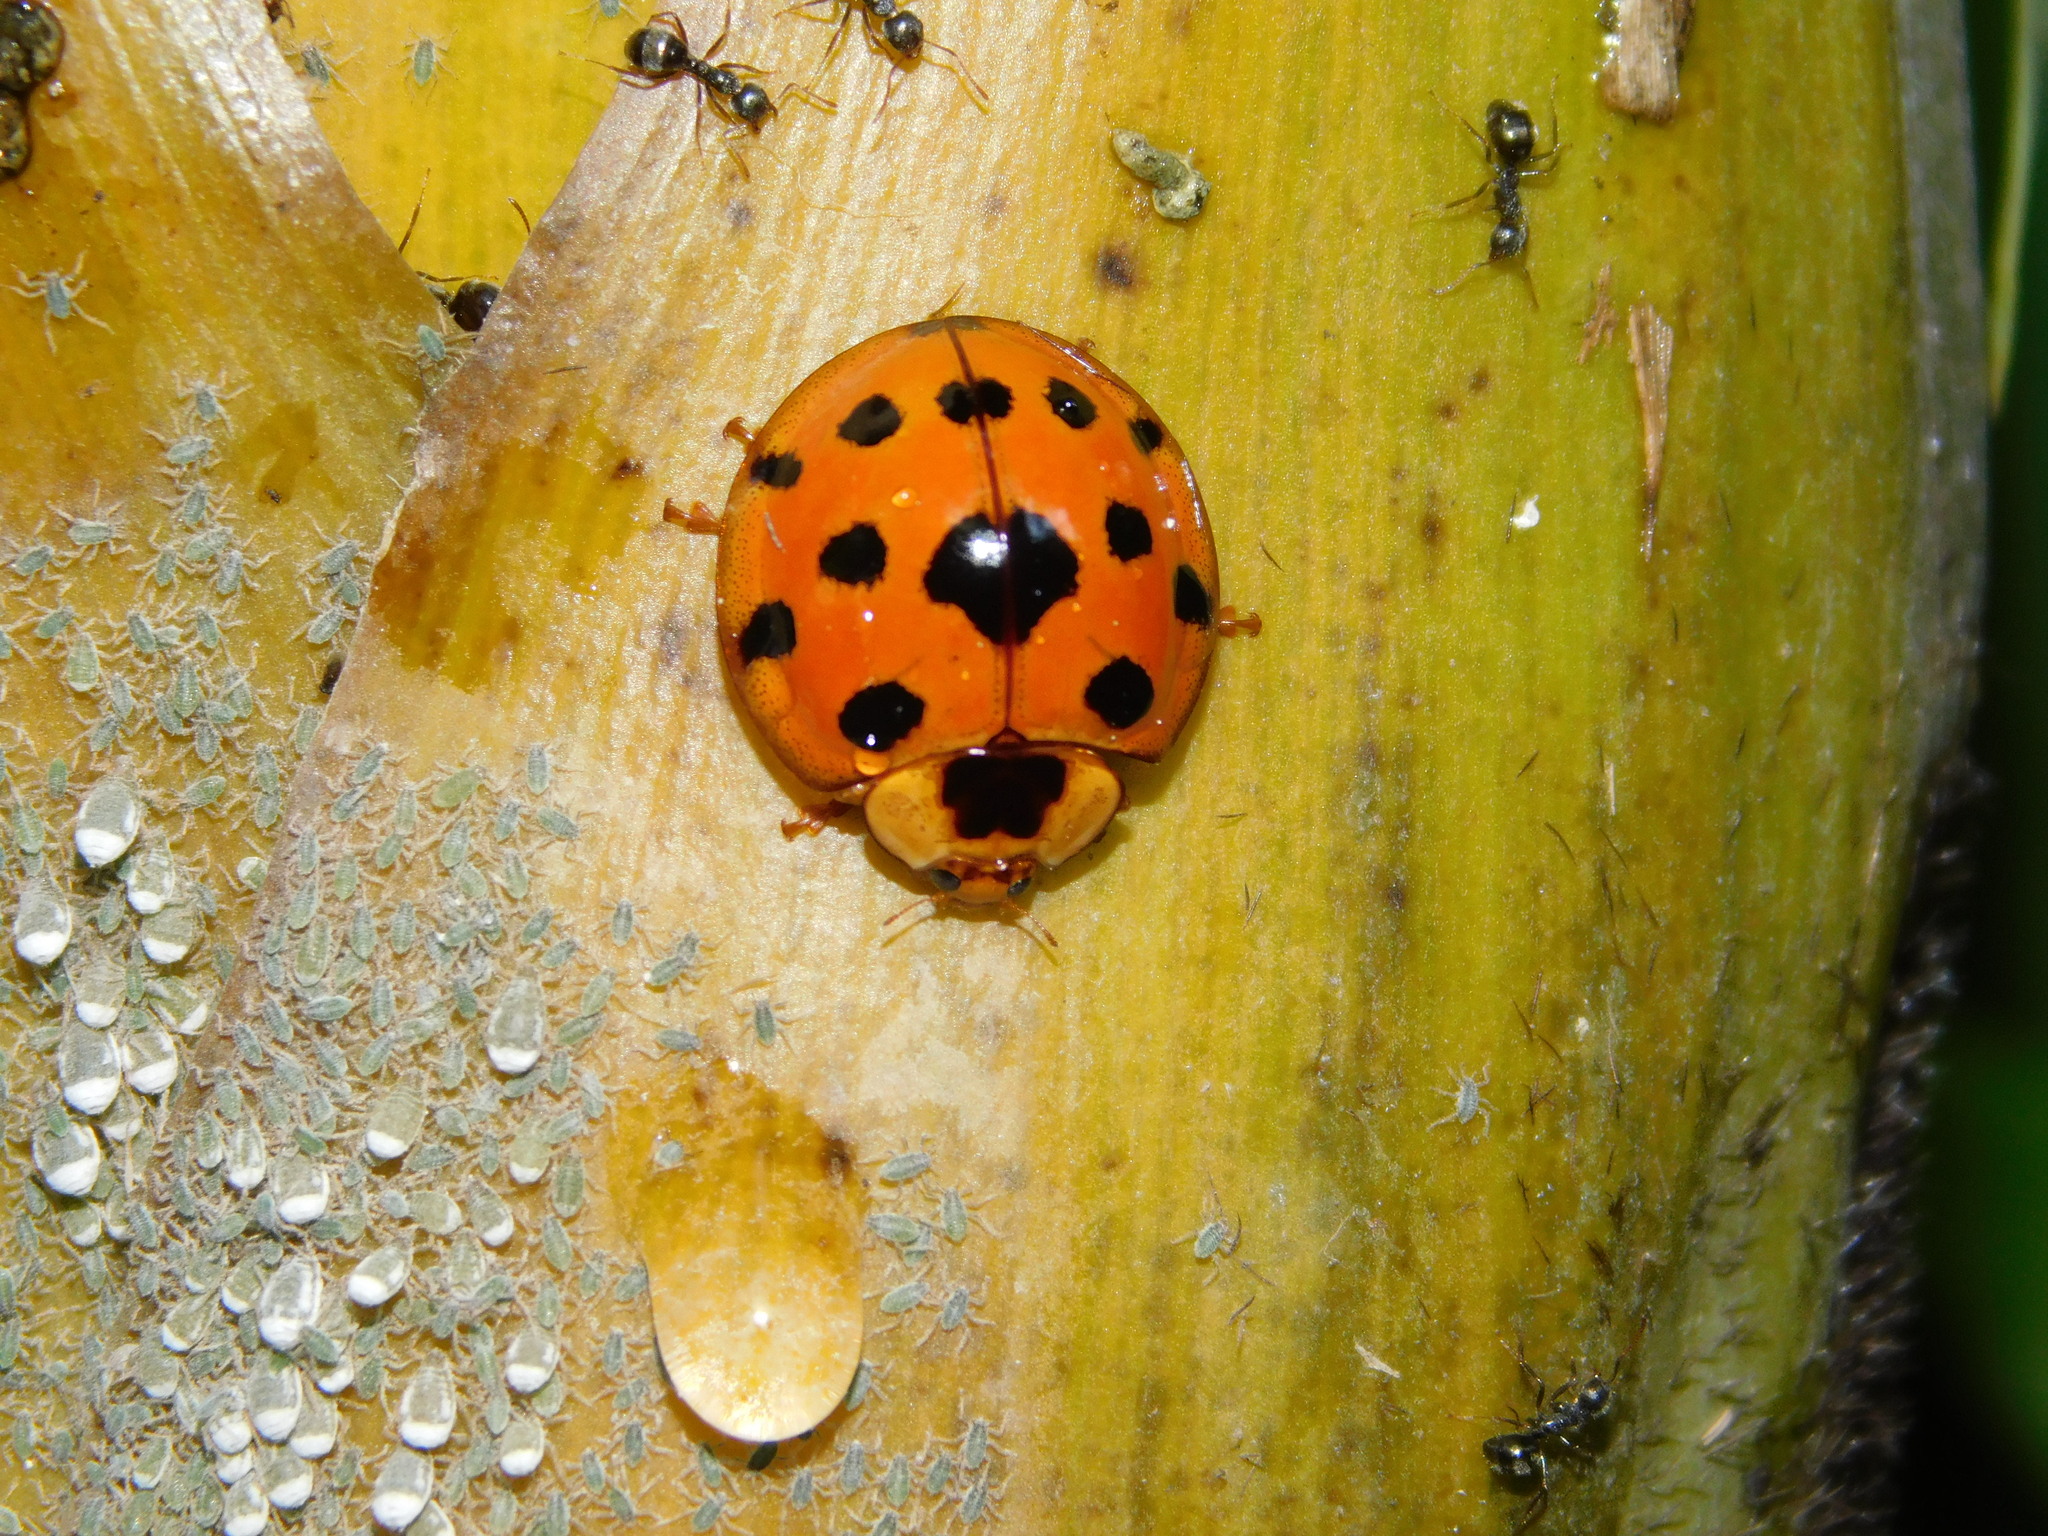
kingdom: Animalia
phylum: Arthropoda
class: Insecta
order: Coleoptera
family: Coccinellidae
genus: Synonycha
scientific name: Synonycha grandis
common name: Lady beetle
